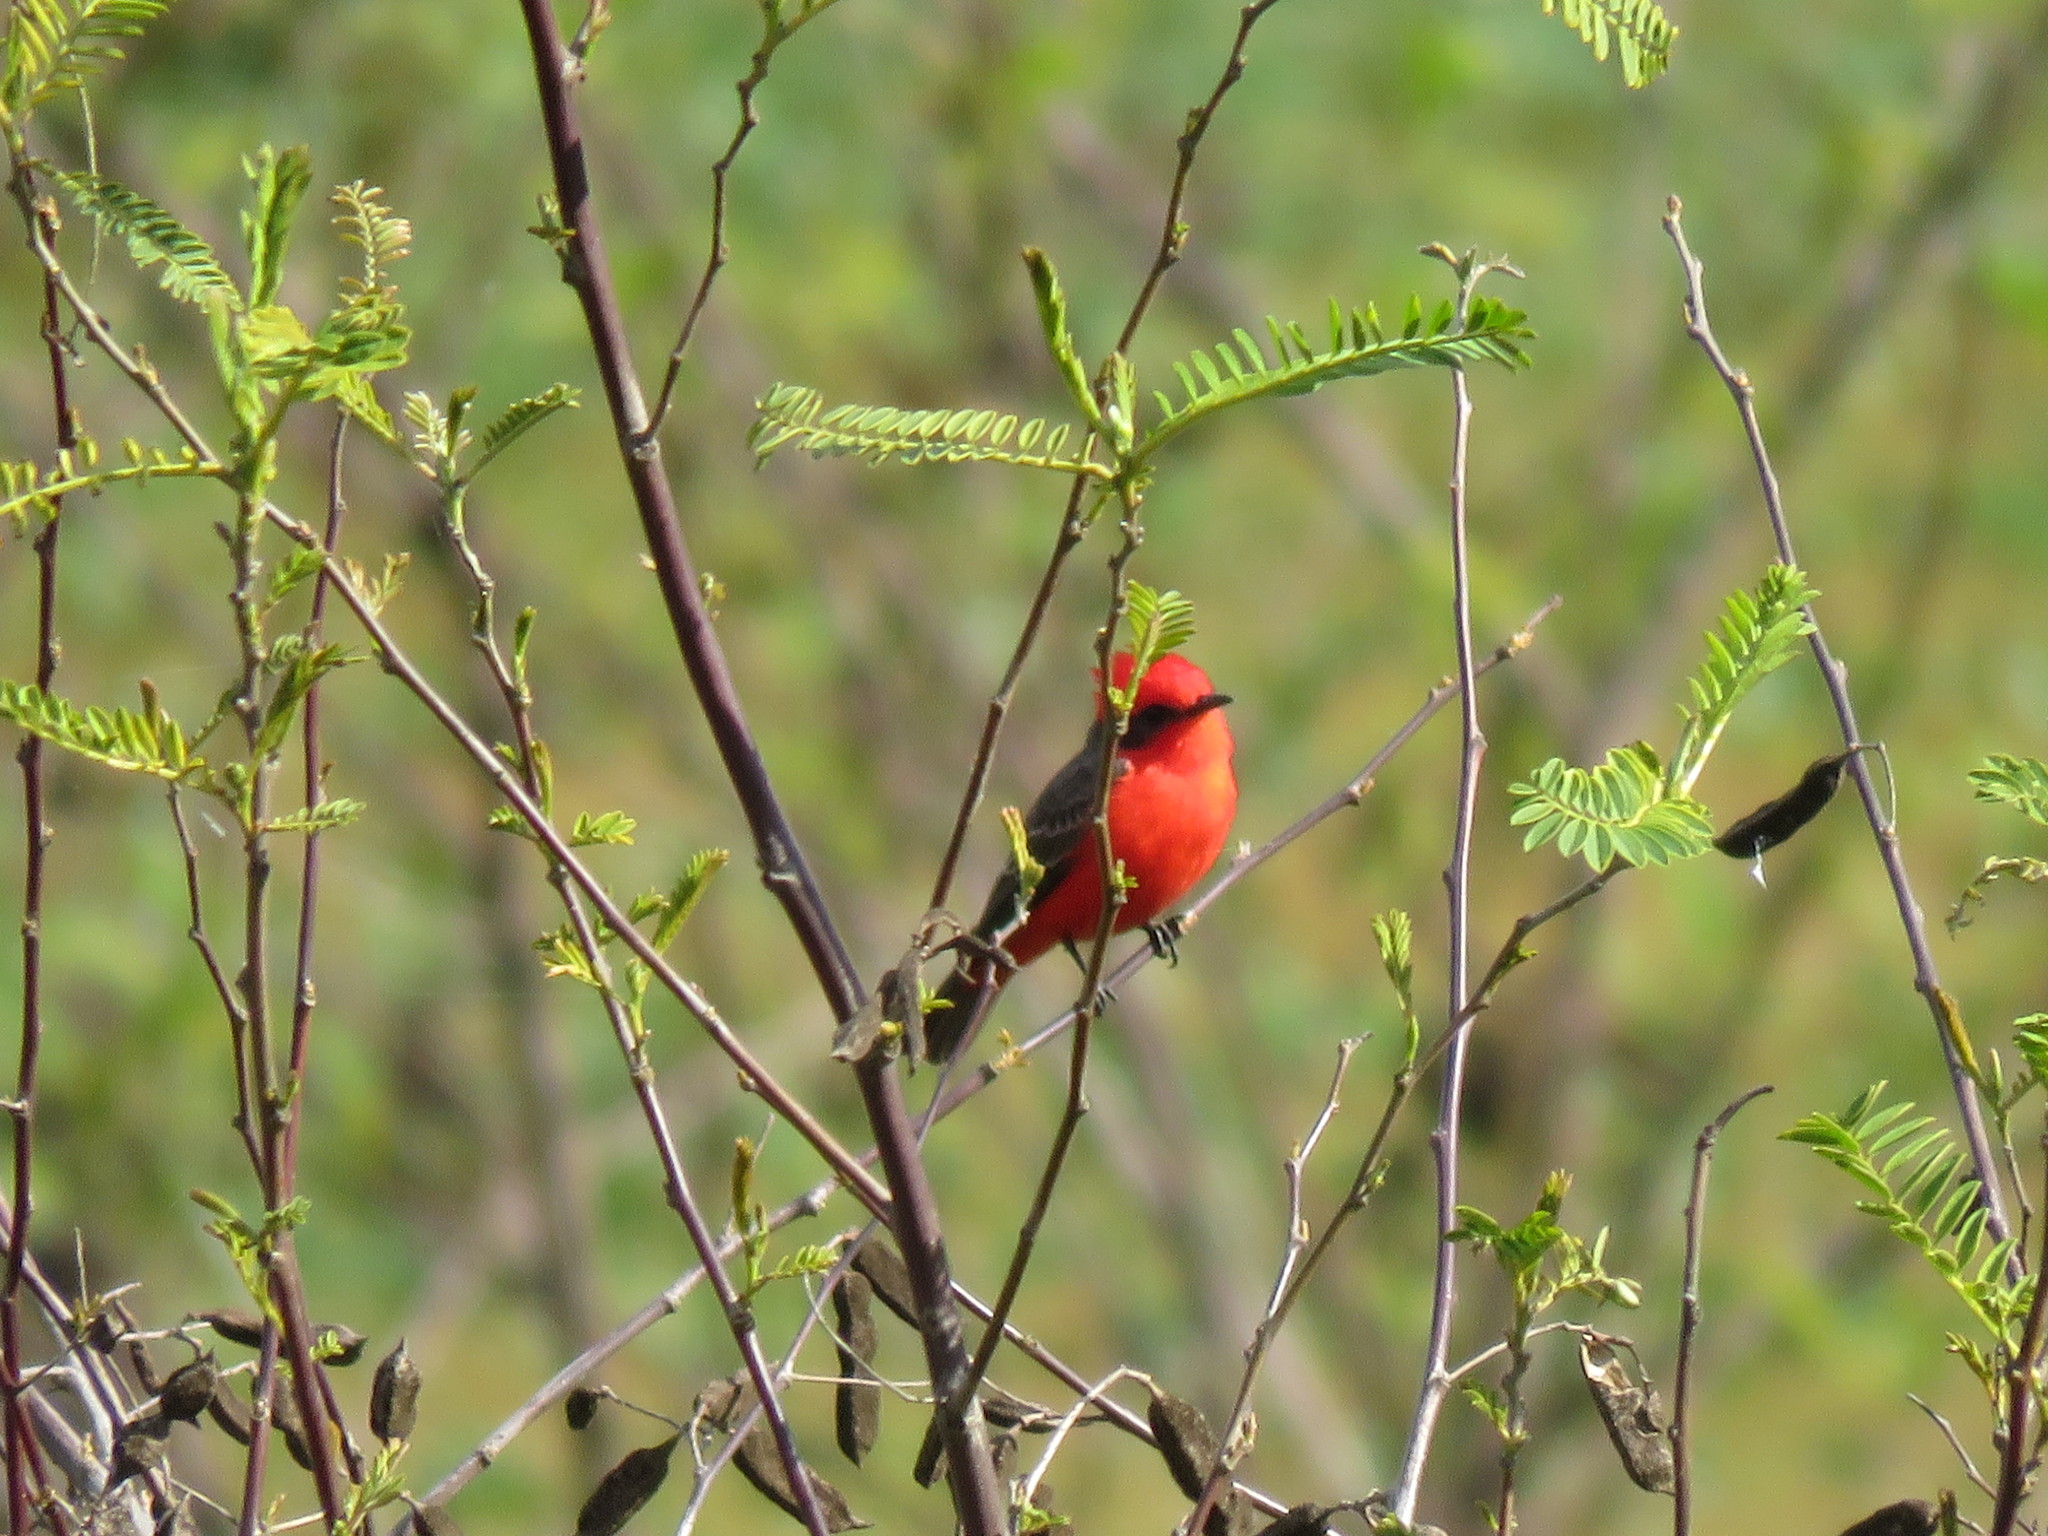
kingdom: Animalia
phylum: Chordata
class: Aves
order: Passeriformes
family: Tyrannidae
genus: Pyrocephalus
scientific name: Pyrocephalus rubinus
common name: Vermilion flycatcher
